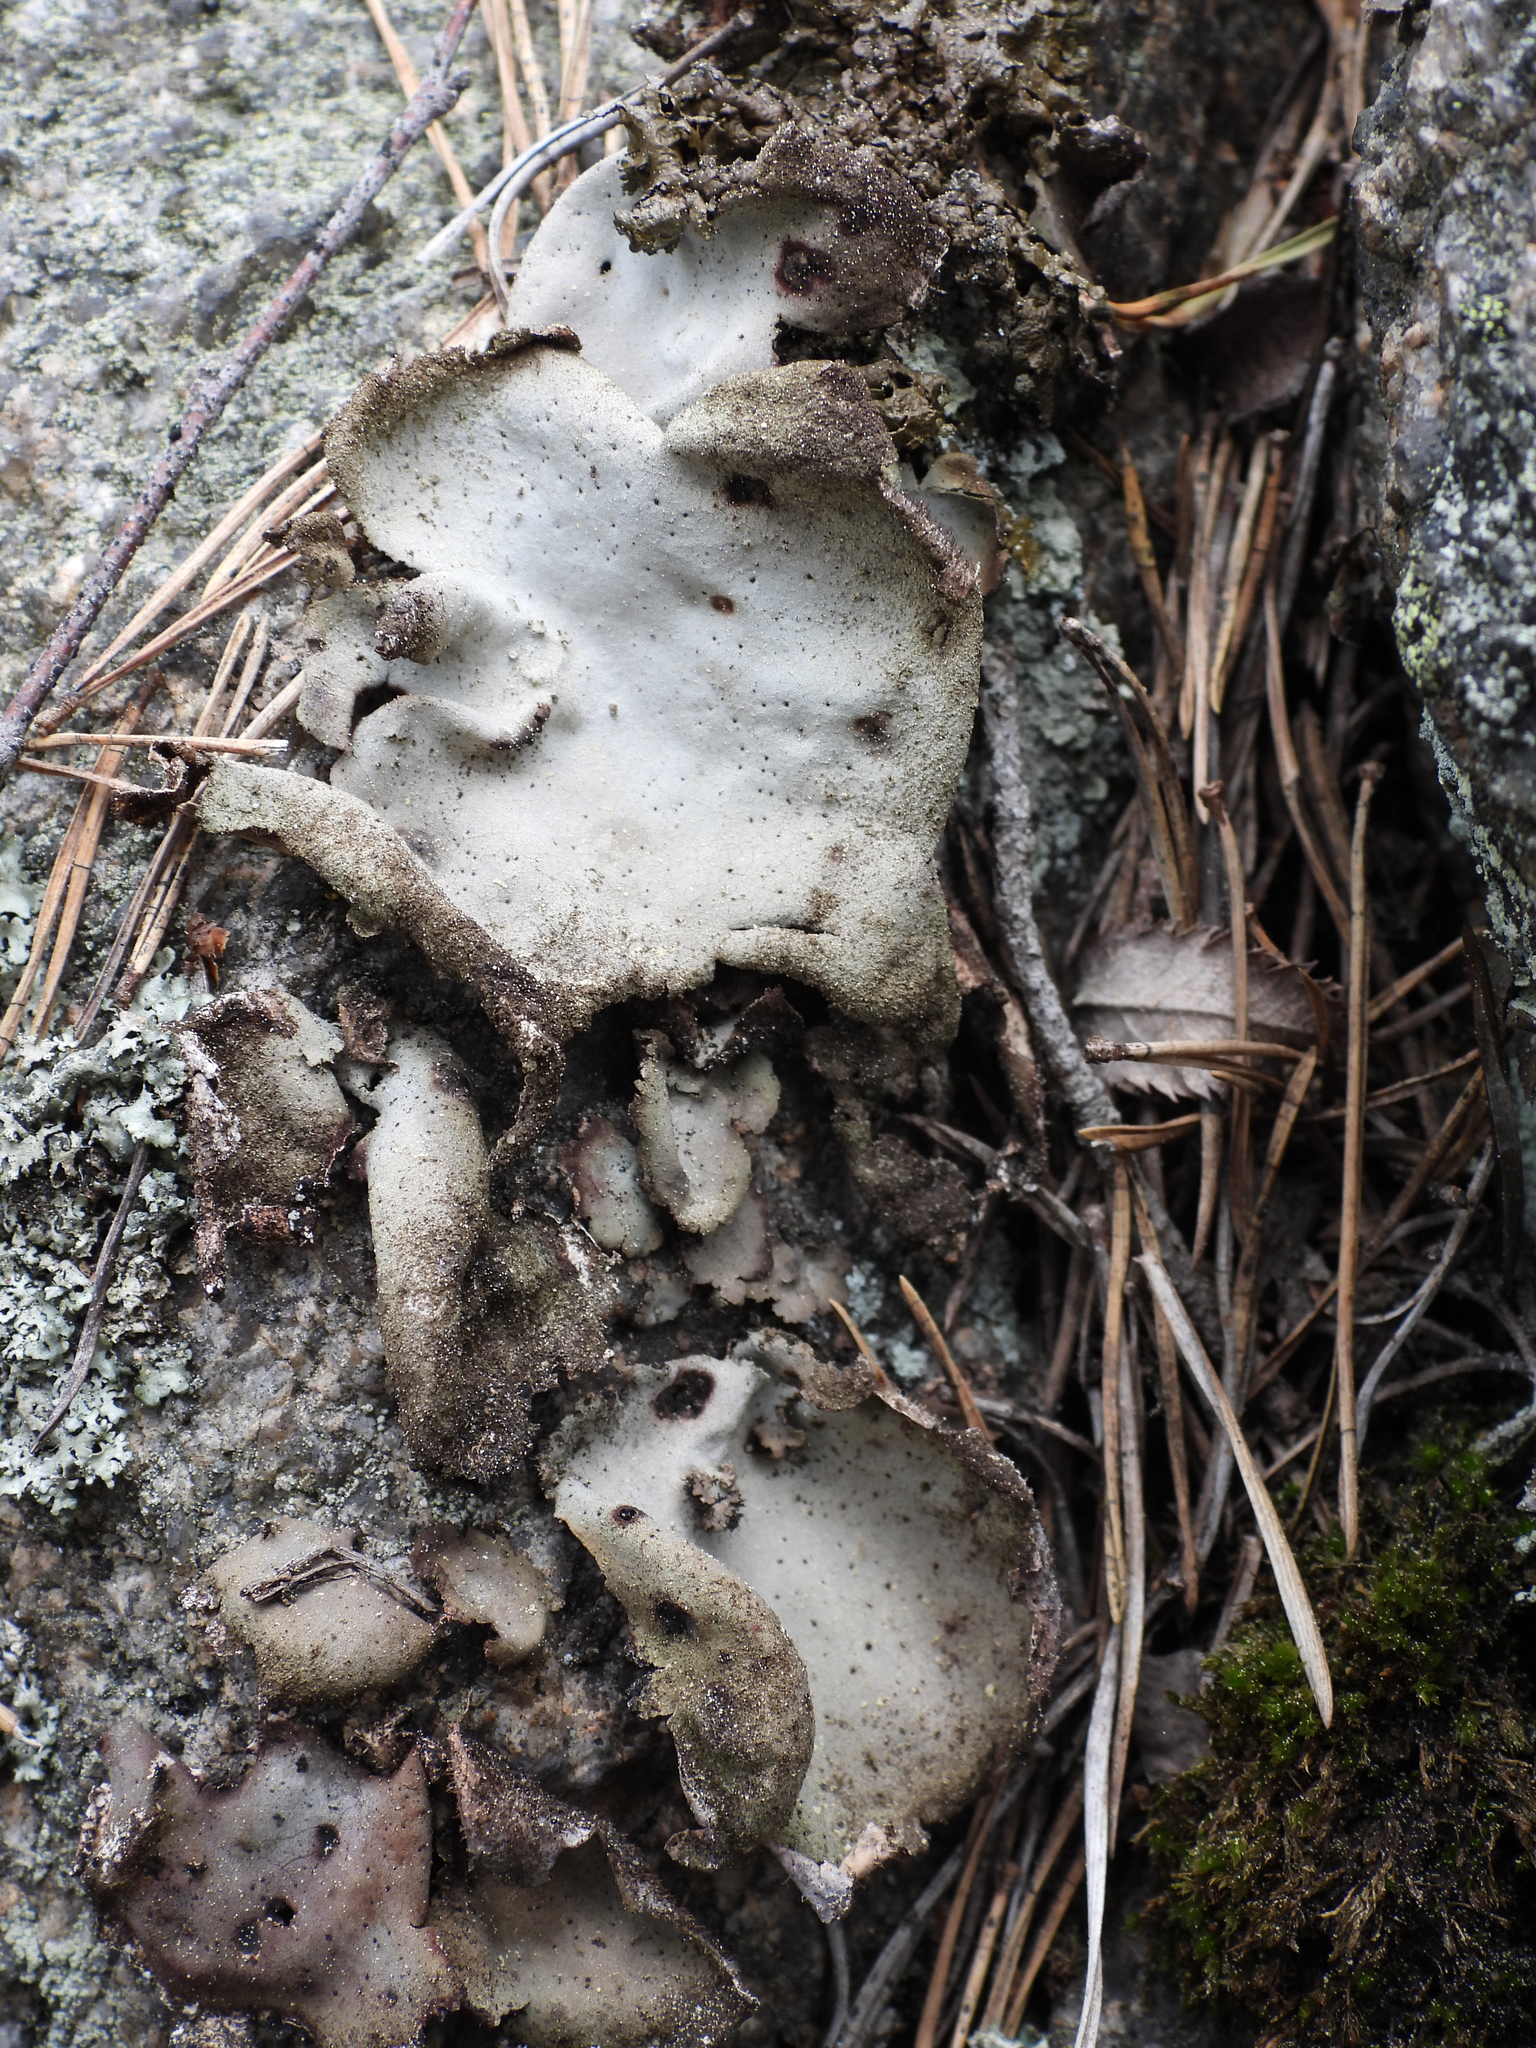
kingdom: Fungi
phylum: Ascomycota
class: Lecanoromycetes
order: Umbilicariales
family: Umbilicariaceae
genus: Umbilicaria
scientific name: Umbilicaria hirsuta
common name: Granulating rocktripe lichen
